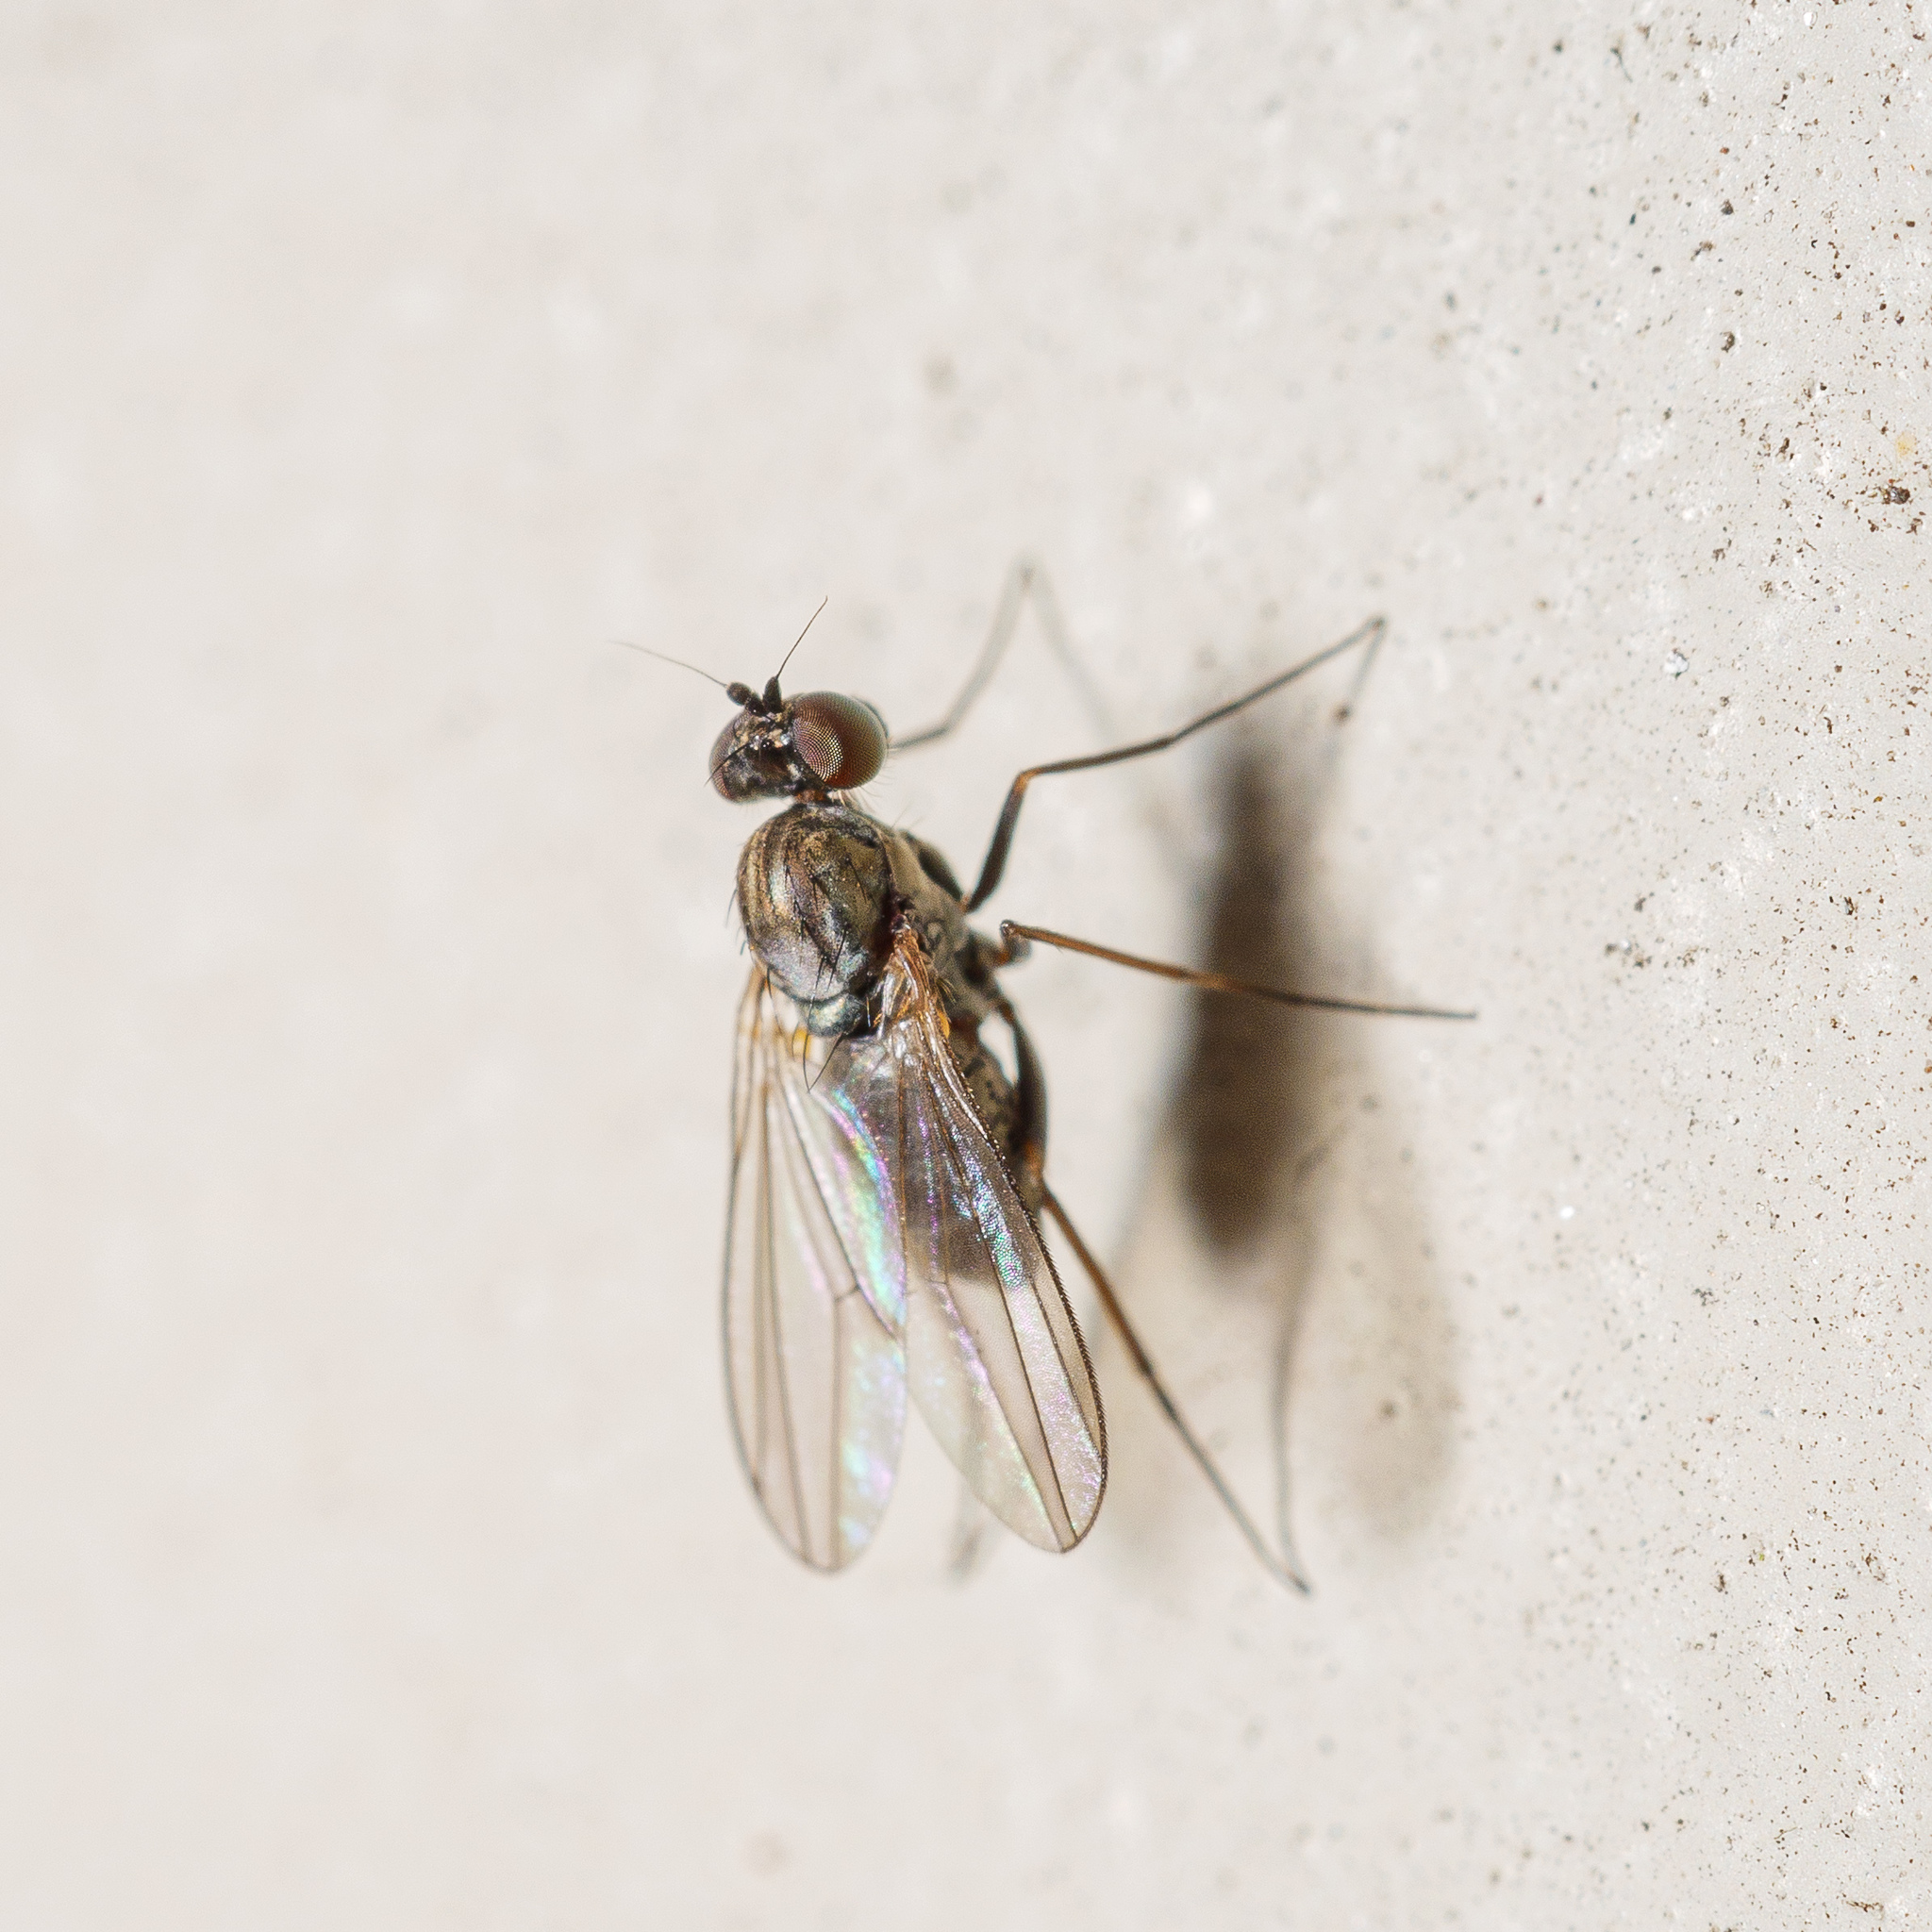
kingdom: Animalia
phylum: Arthropoda
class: Insecta
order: Diptera
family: Dolichopodidae
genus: Medetera
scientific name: Medetera grisescens
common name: Fly
